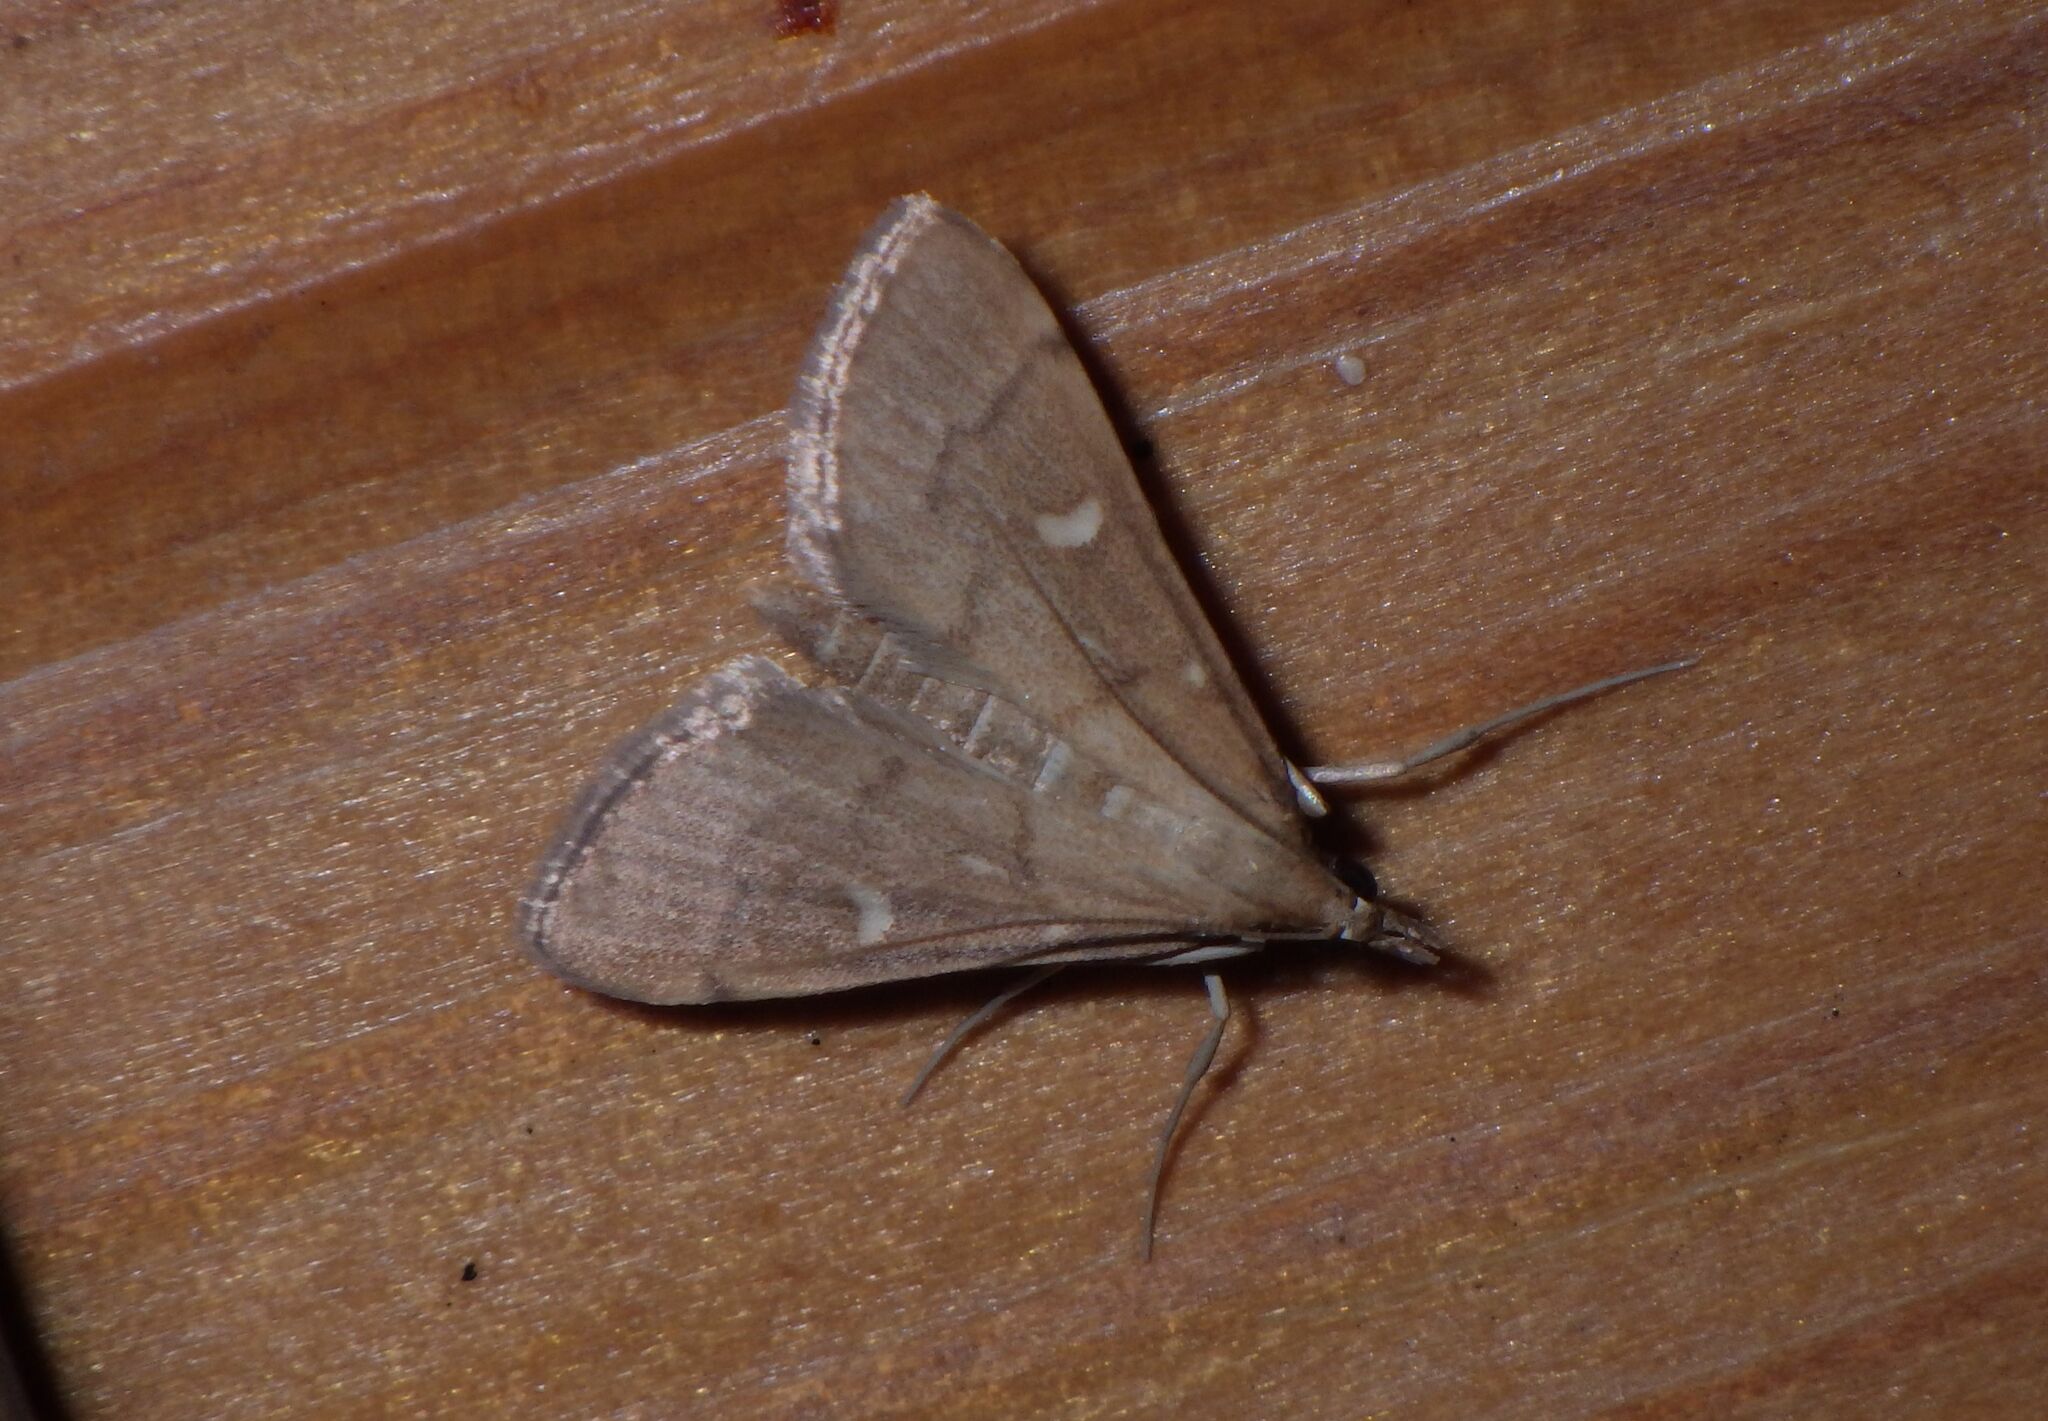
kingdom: Animalia
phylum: Arthropoda
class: Insecta
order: Lepidoptera
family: Crambidae
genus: Stenia
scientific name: Stenia Dolicharthria punctalis
